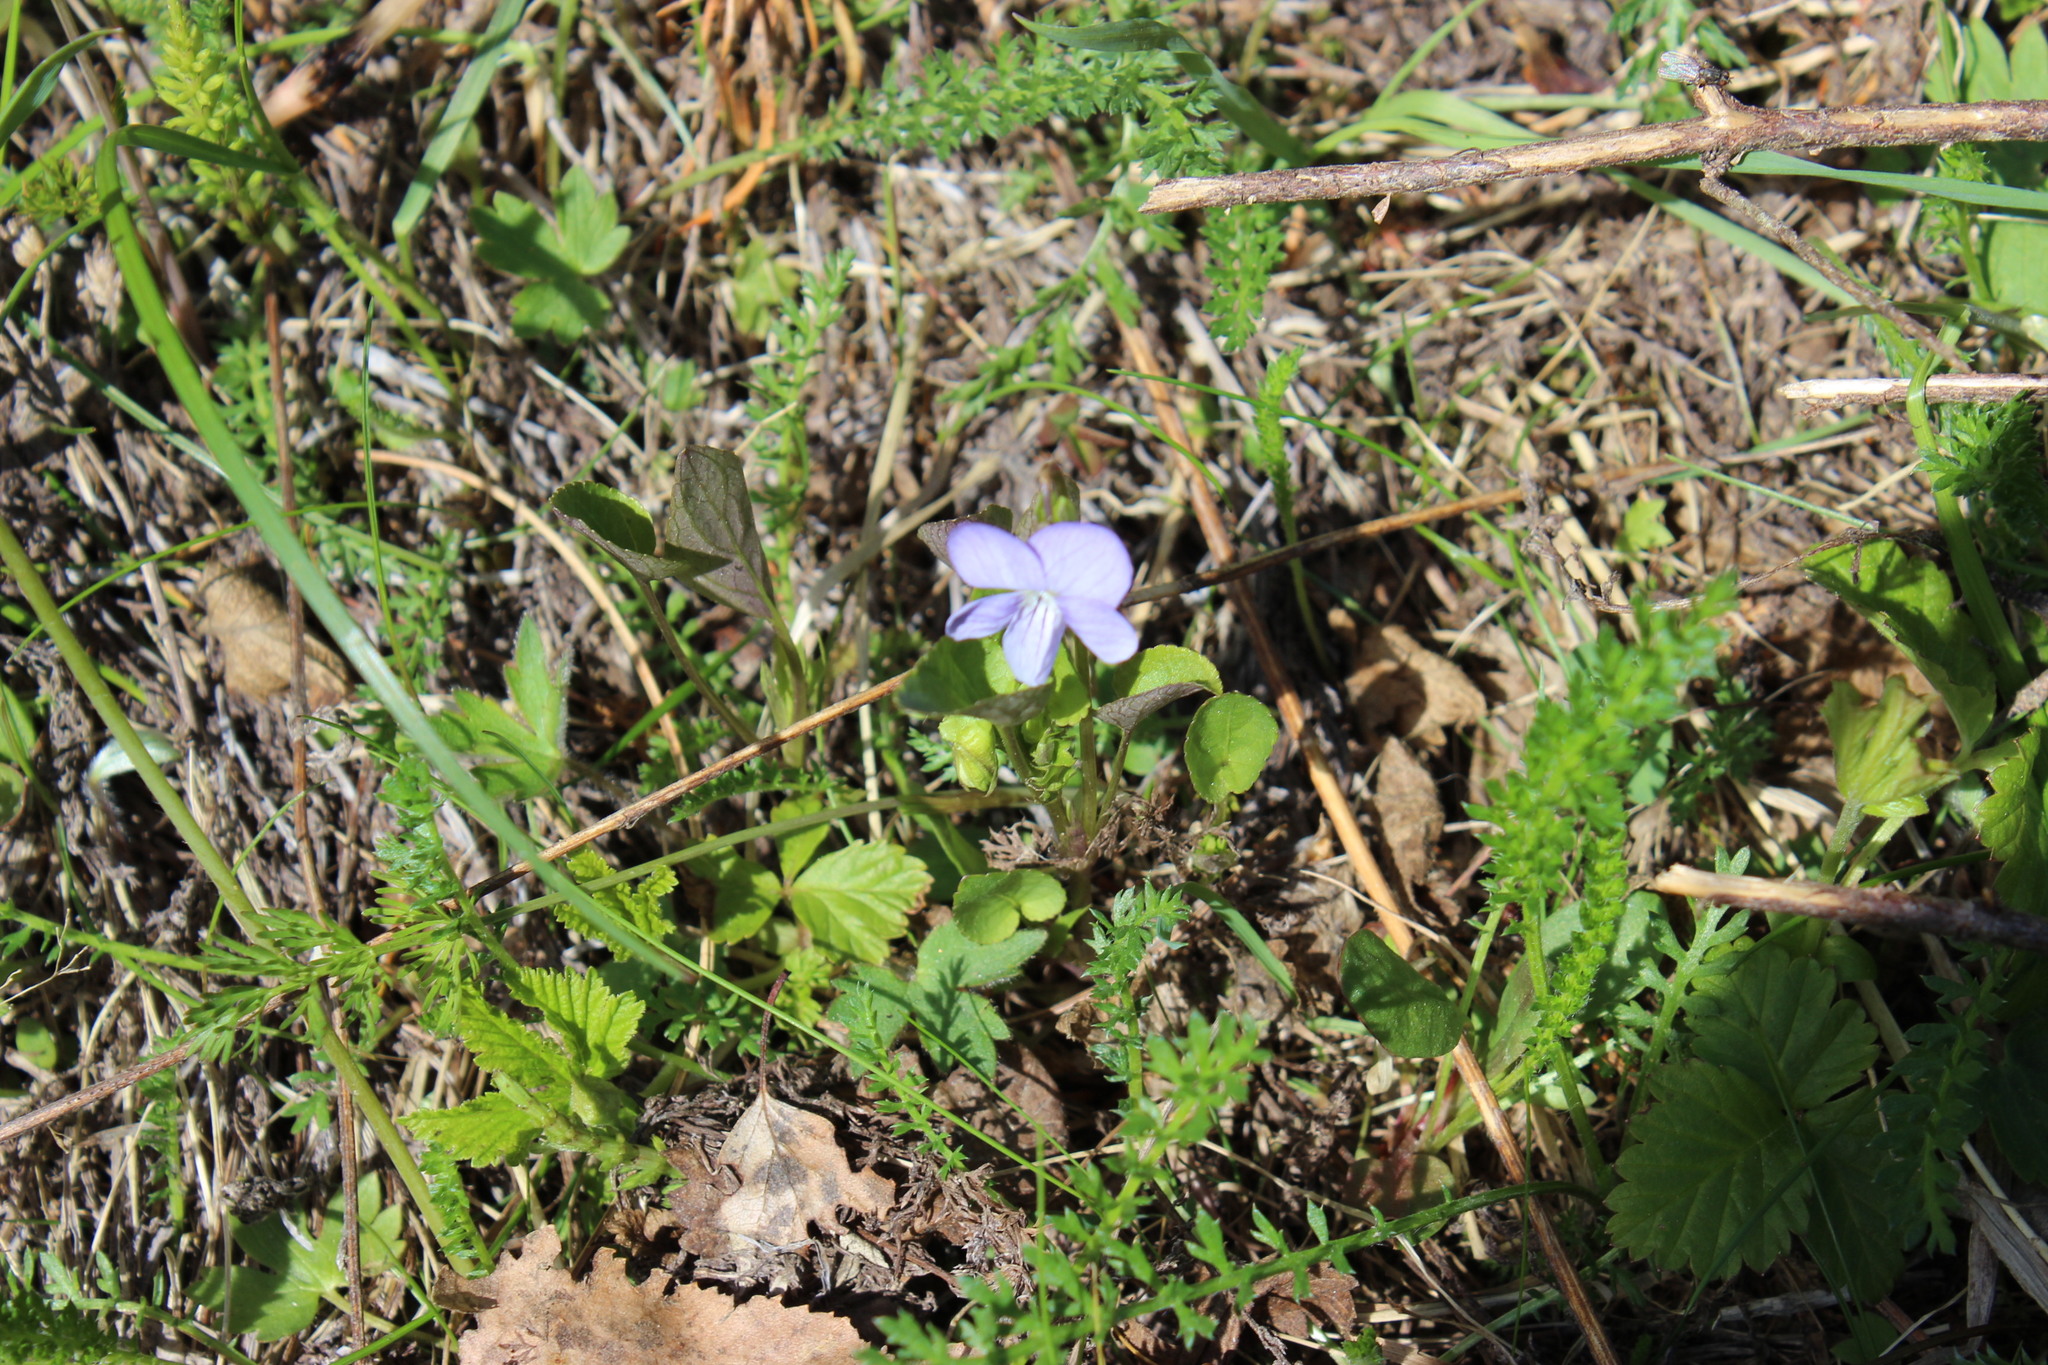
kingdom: Plantae
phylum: Tracheophyta
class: Magnoliopsida
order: Malpighiales
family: Violaceae
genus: Viola
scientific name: Viola rupestris
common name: Teesdale violet
